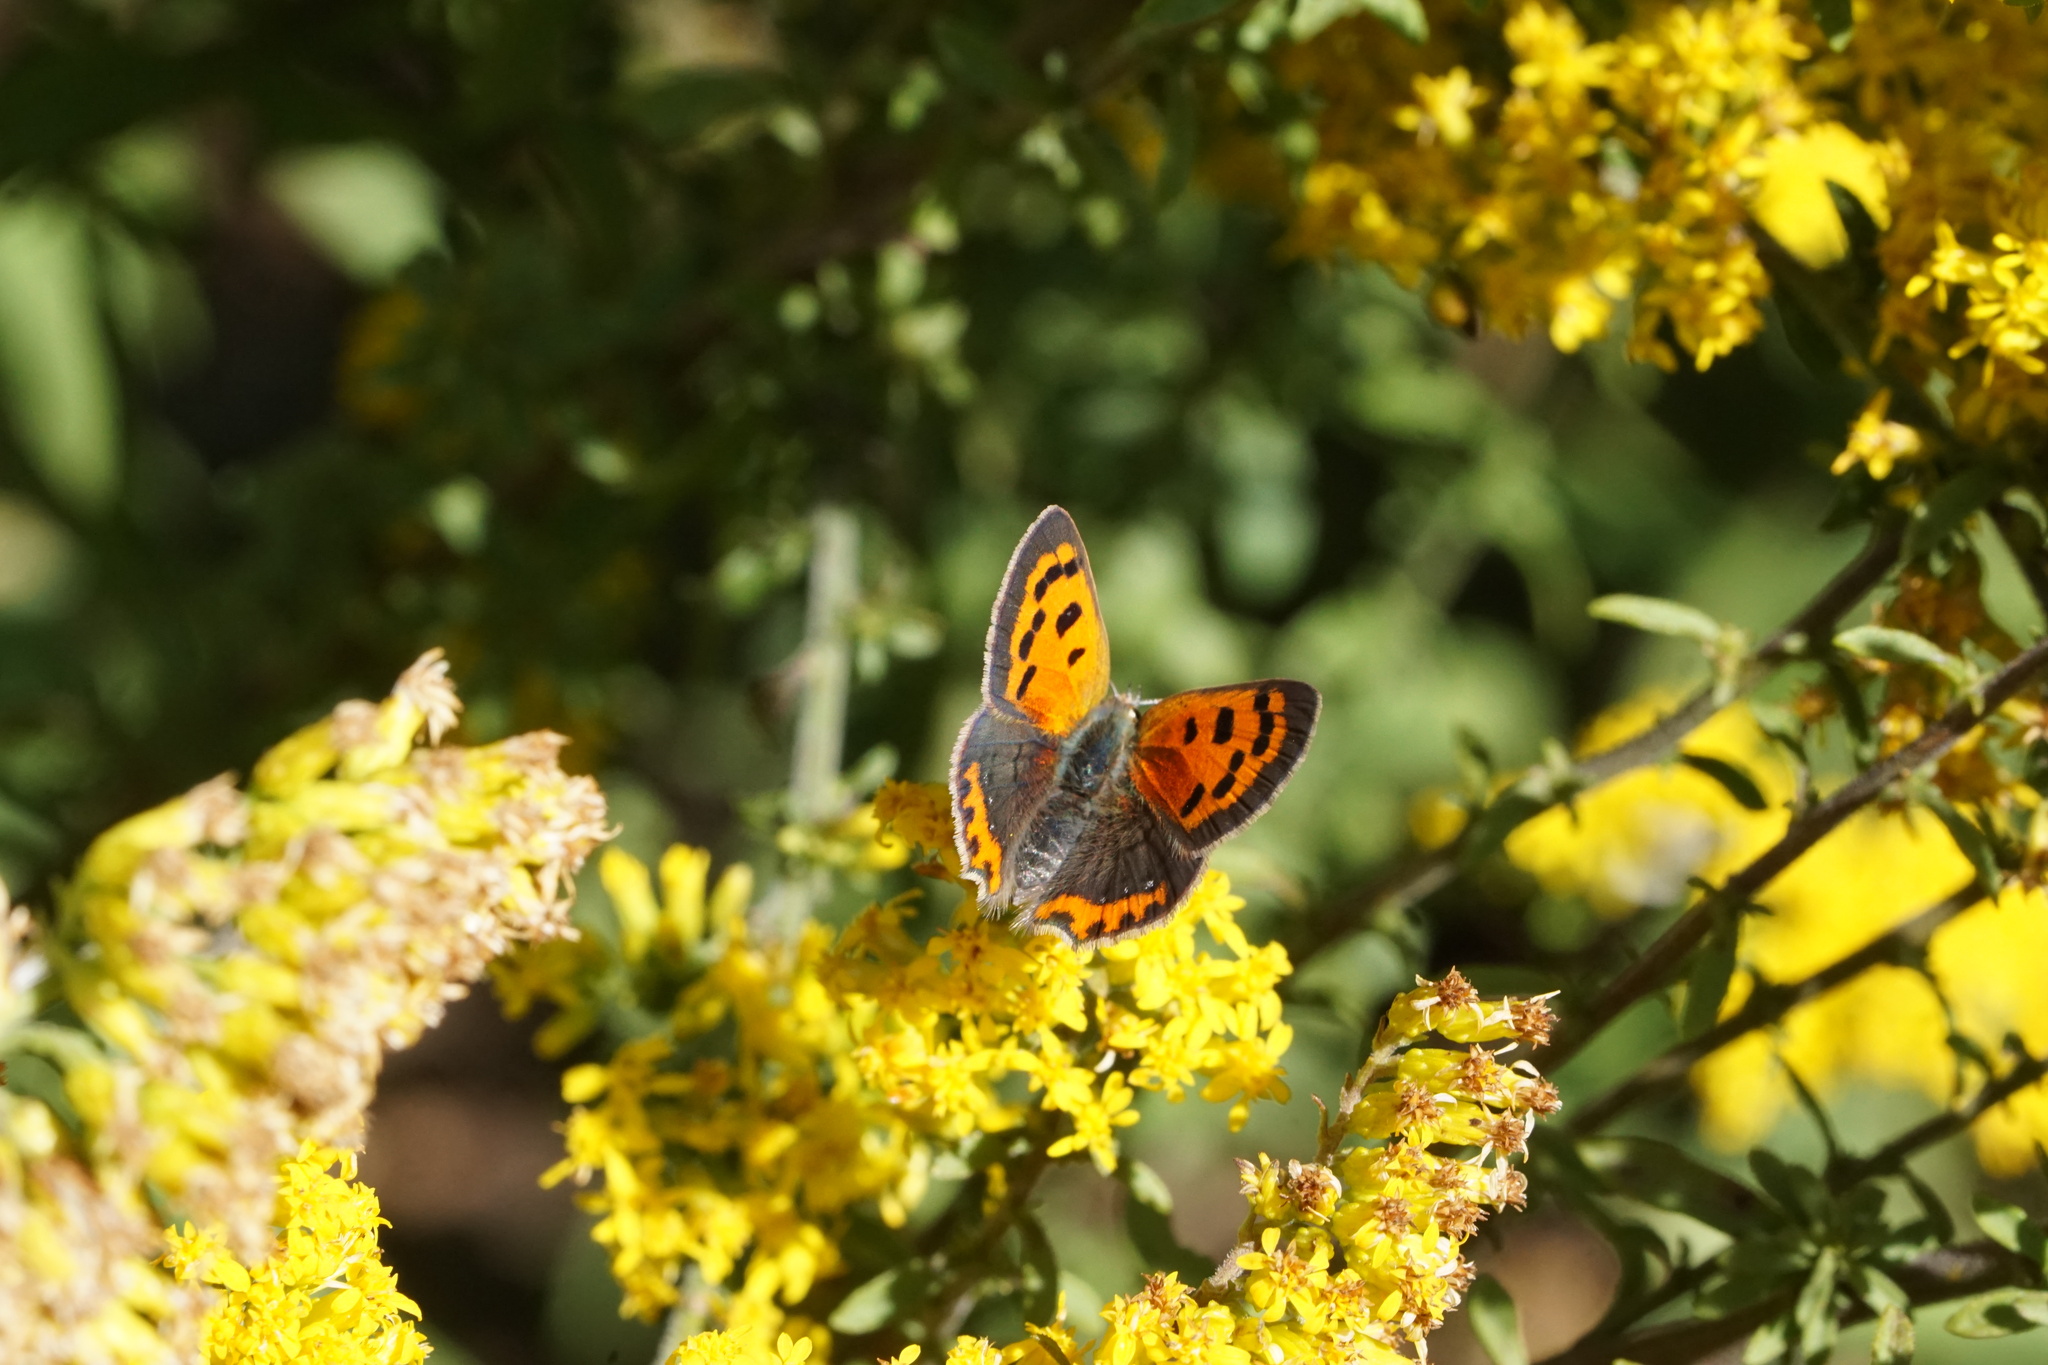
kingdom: Animalia
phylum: Arthropoda
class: Insecta
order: Lepidoptera
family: Lycaenidae
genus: Lycaena
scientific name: Lycaena hypophlaeas
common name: American copper
